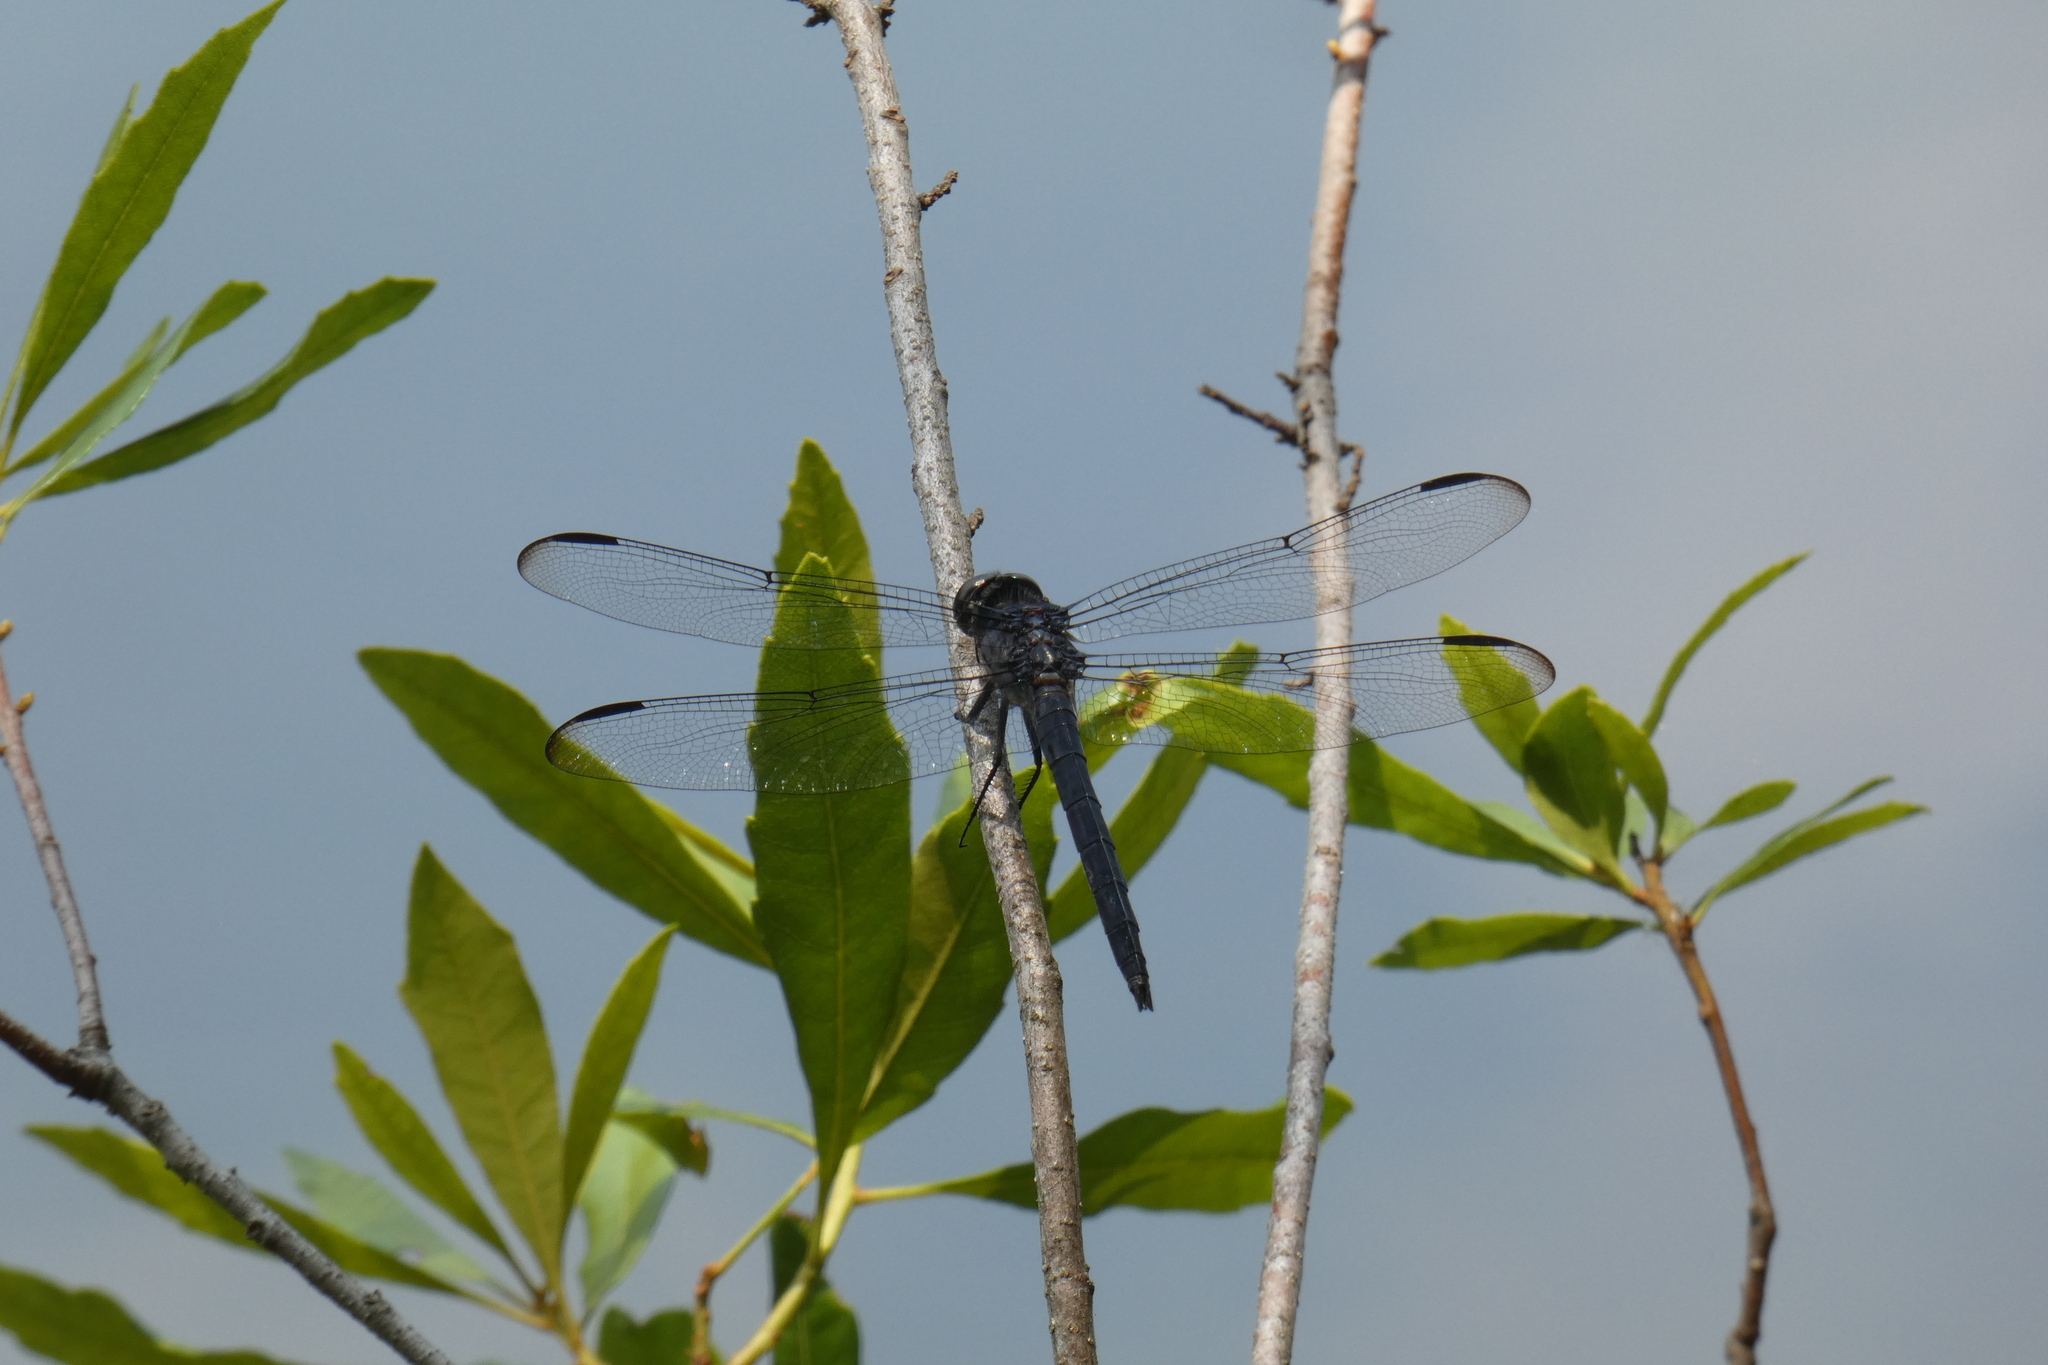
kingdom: Animalia
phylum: Arthropoda
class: Insecta
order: Odonata
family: Libellulidae
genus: Libellula
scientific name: Libellula incesta
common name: Slaty skimmer
